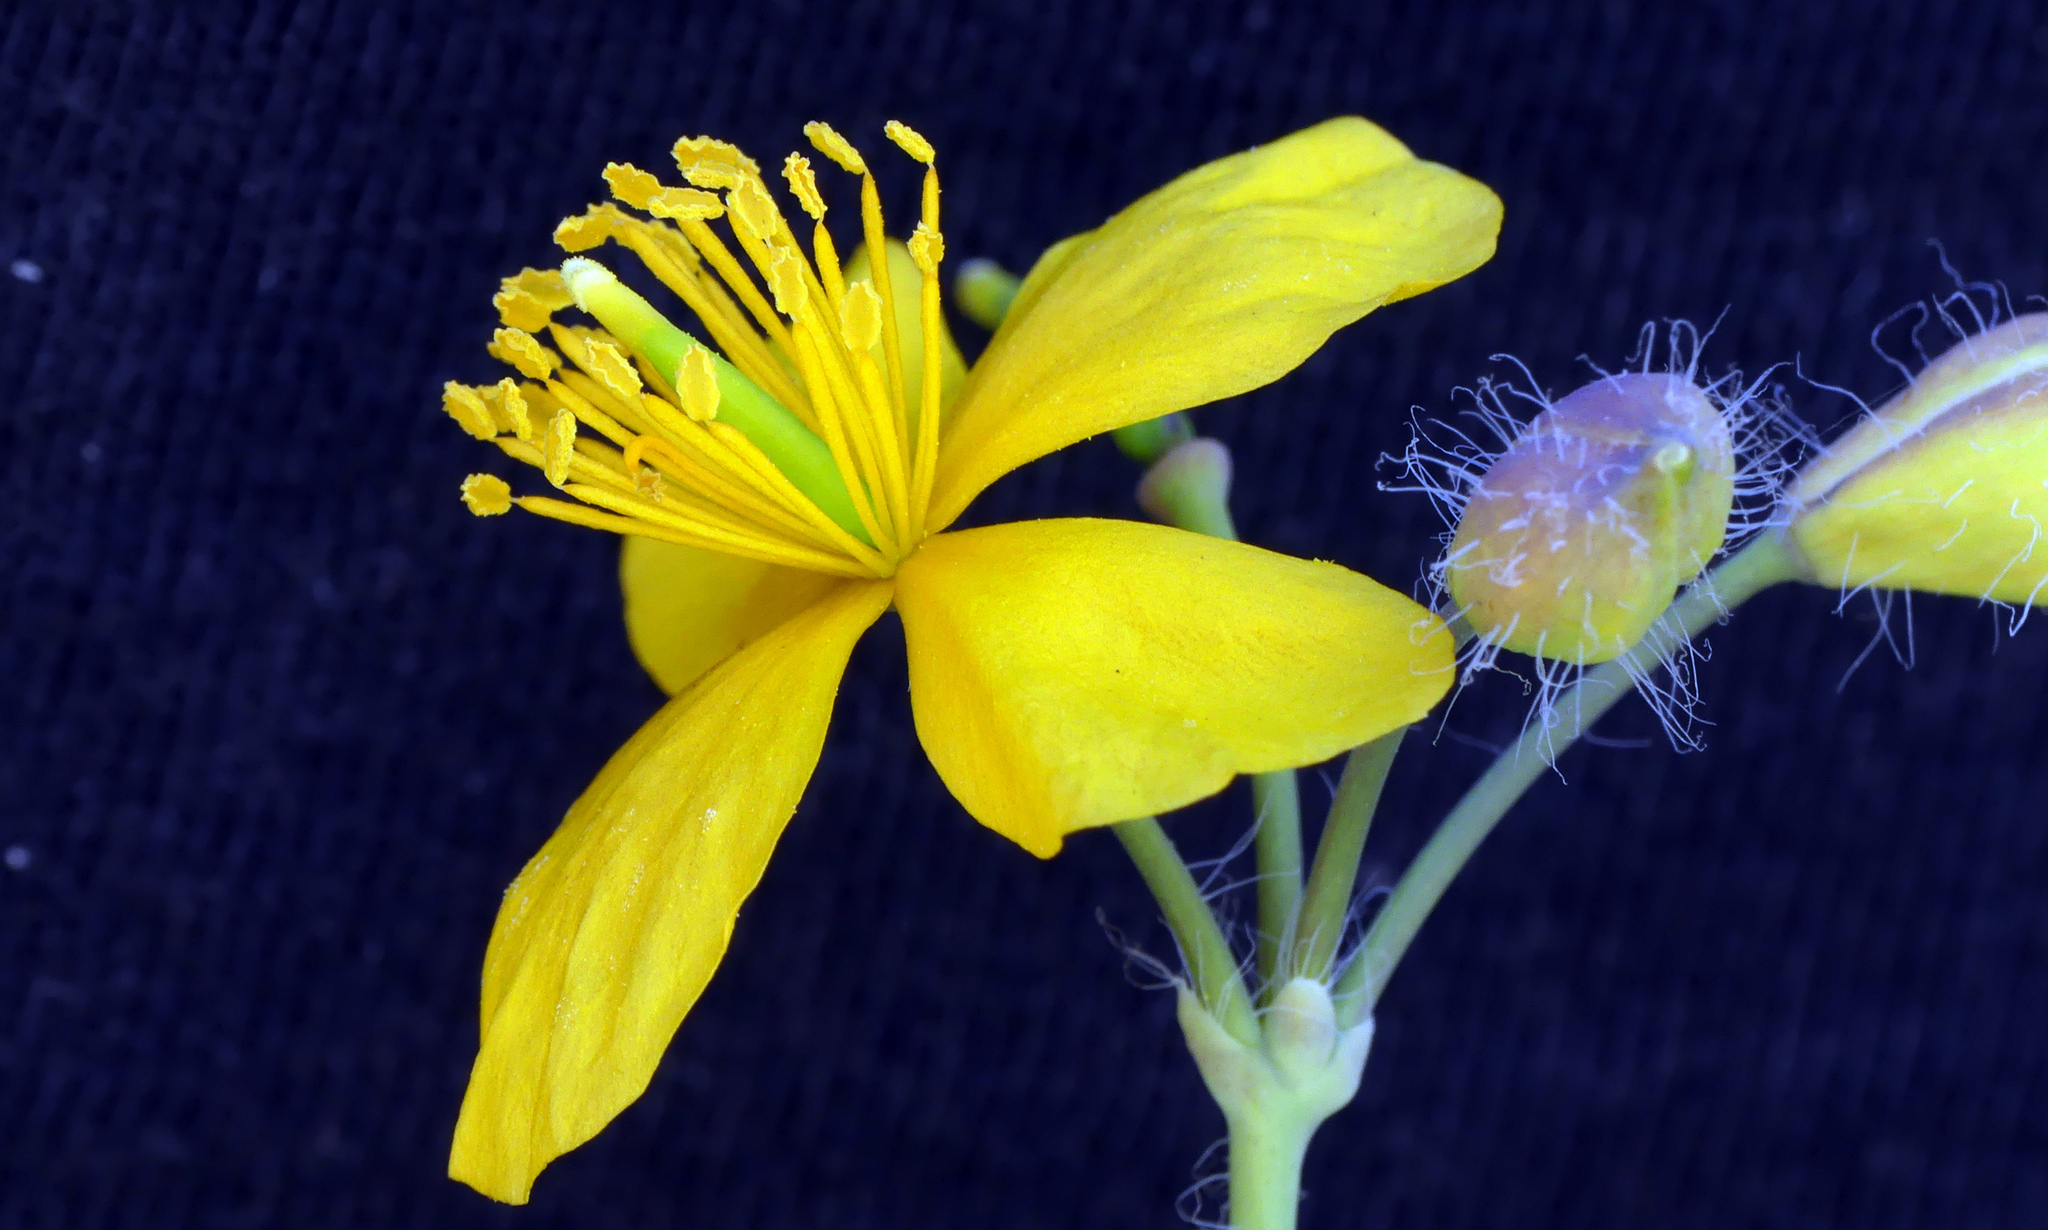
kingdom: Plantae
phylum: Tracheophyta
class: Magnoliopsida
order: Ranunculales
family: Papaveraceae
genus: Chelidonium
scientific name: Chelidonium majus
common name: Greater celandine
